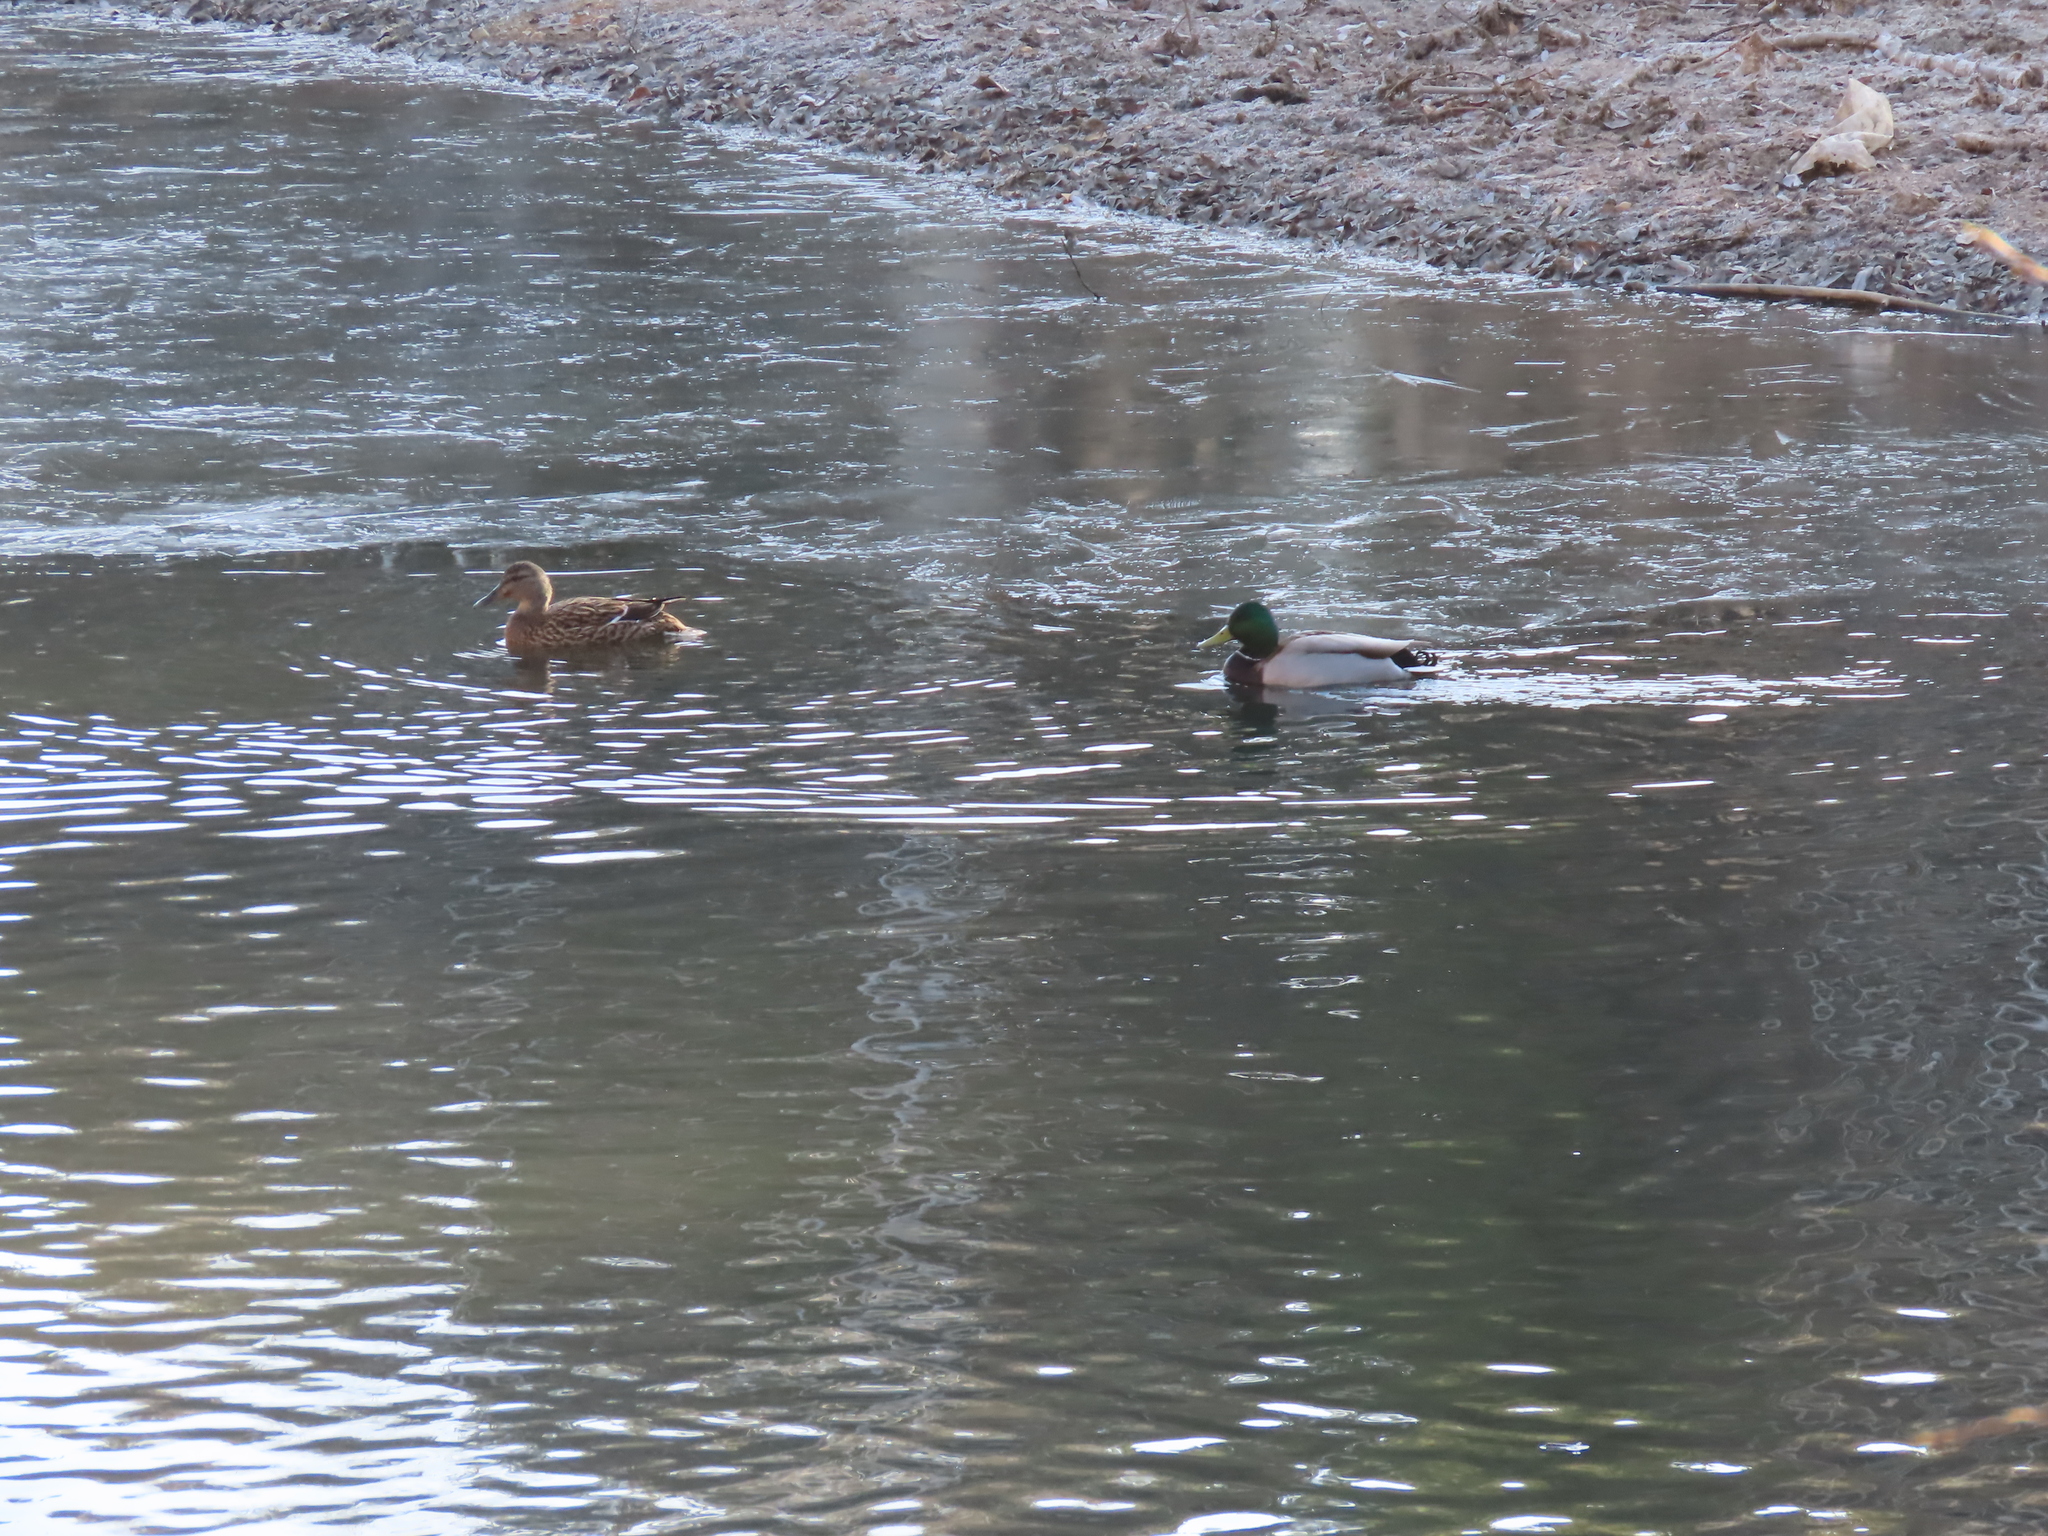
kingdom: Animalia
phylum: Chordata
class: Aves
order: Anseriformes
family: Anatidae
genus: Anas
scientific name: Anas platyrhynchos
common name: Mallard
